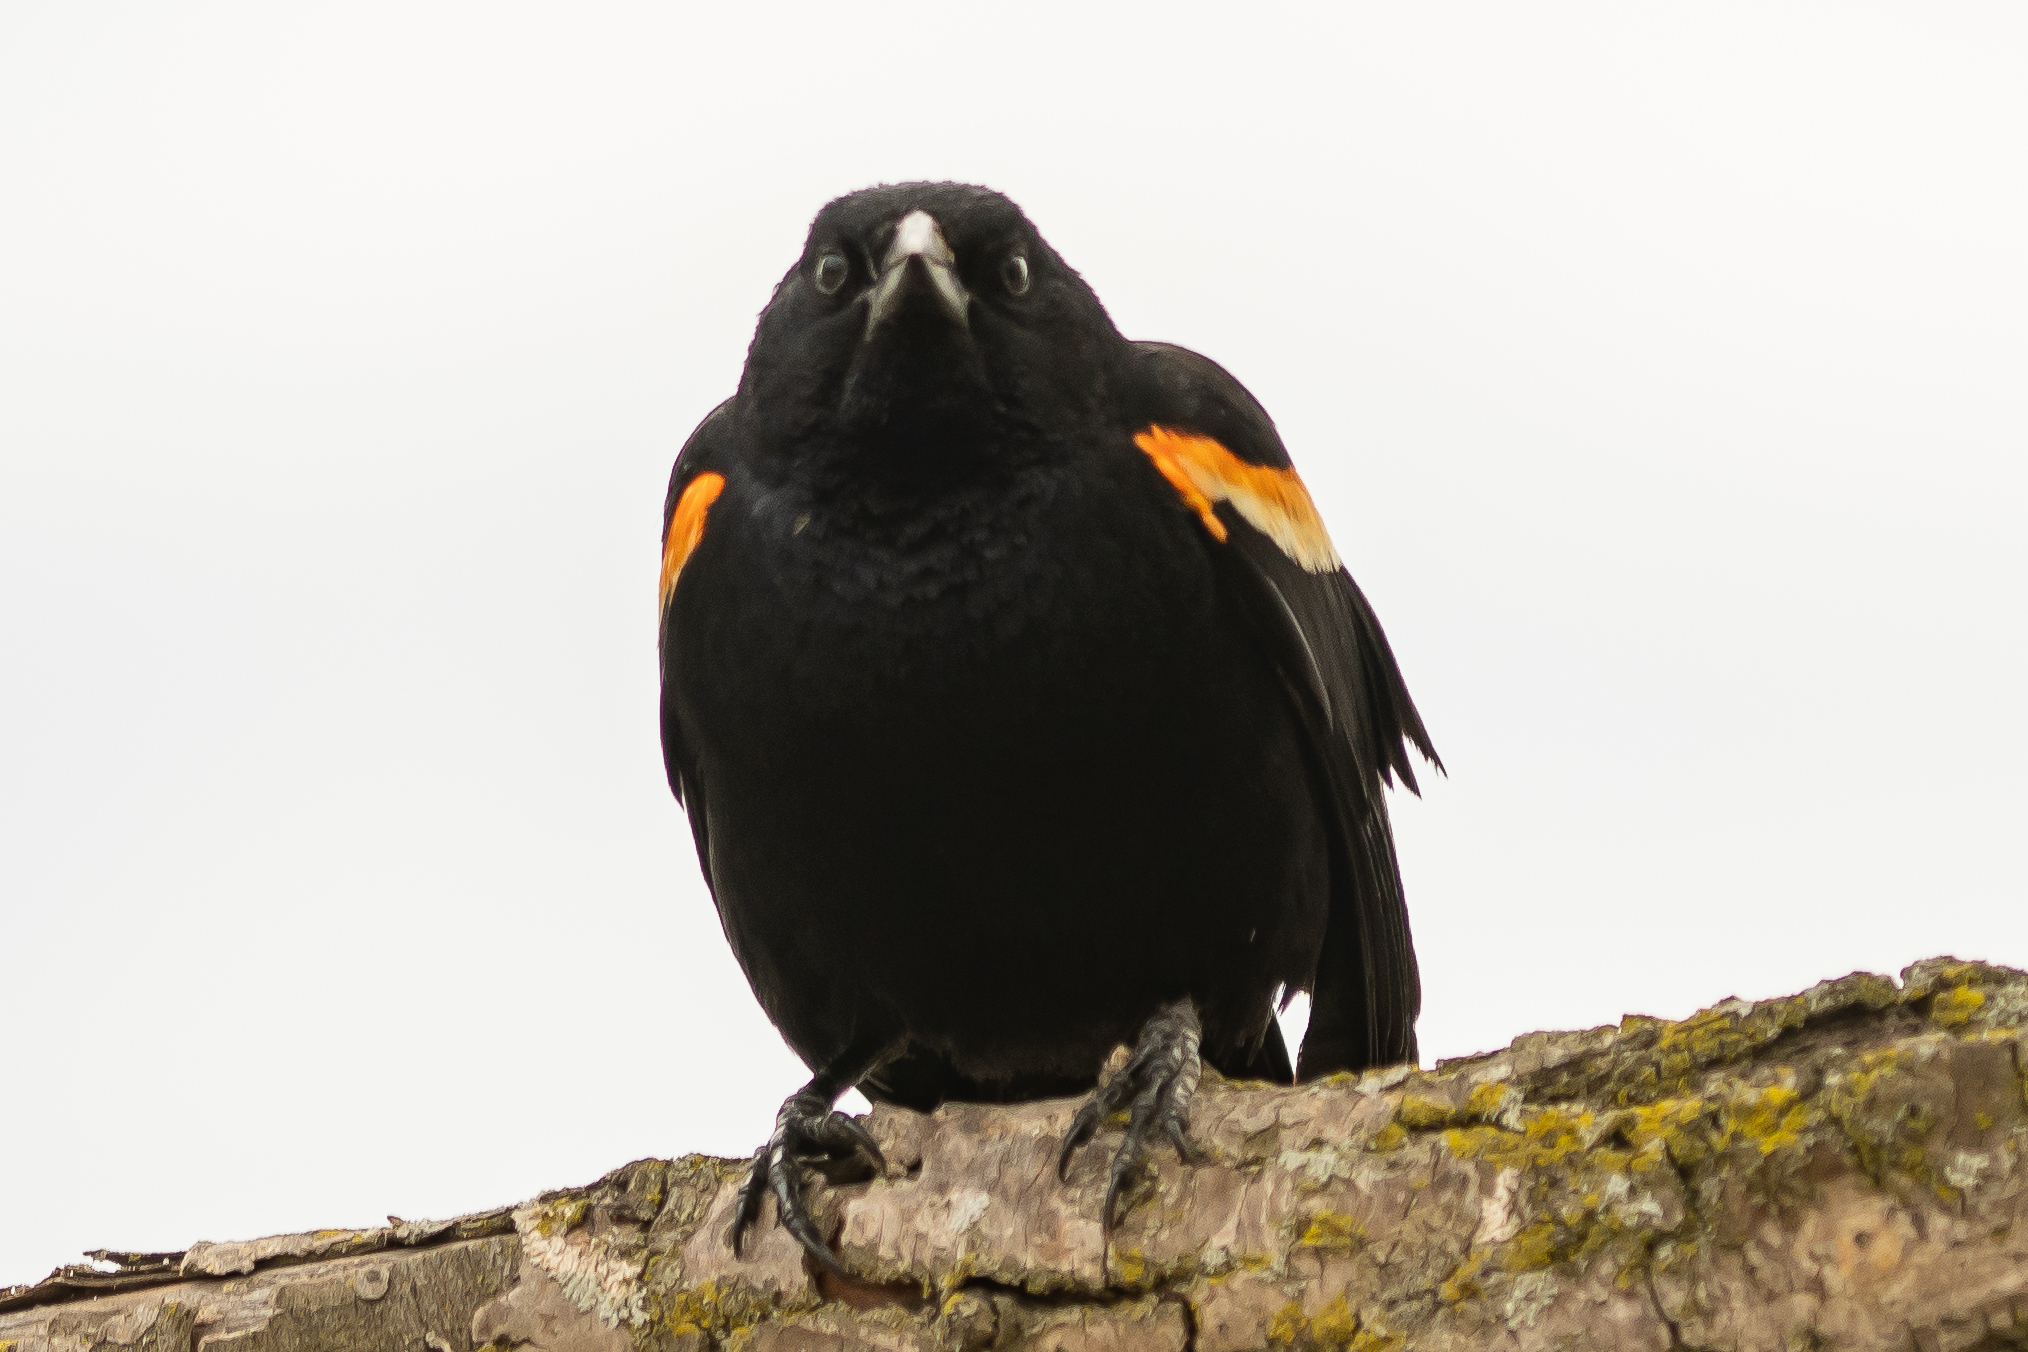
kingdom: Animalia
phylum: Chordata
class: Aves
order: Passeriformes
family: Icteridae
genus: Agelaius
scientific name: Agelaius phoeniceus
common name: Red-winged blackbird
